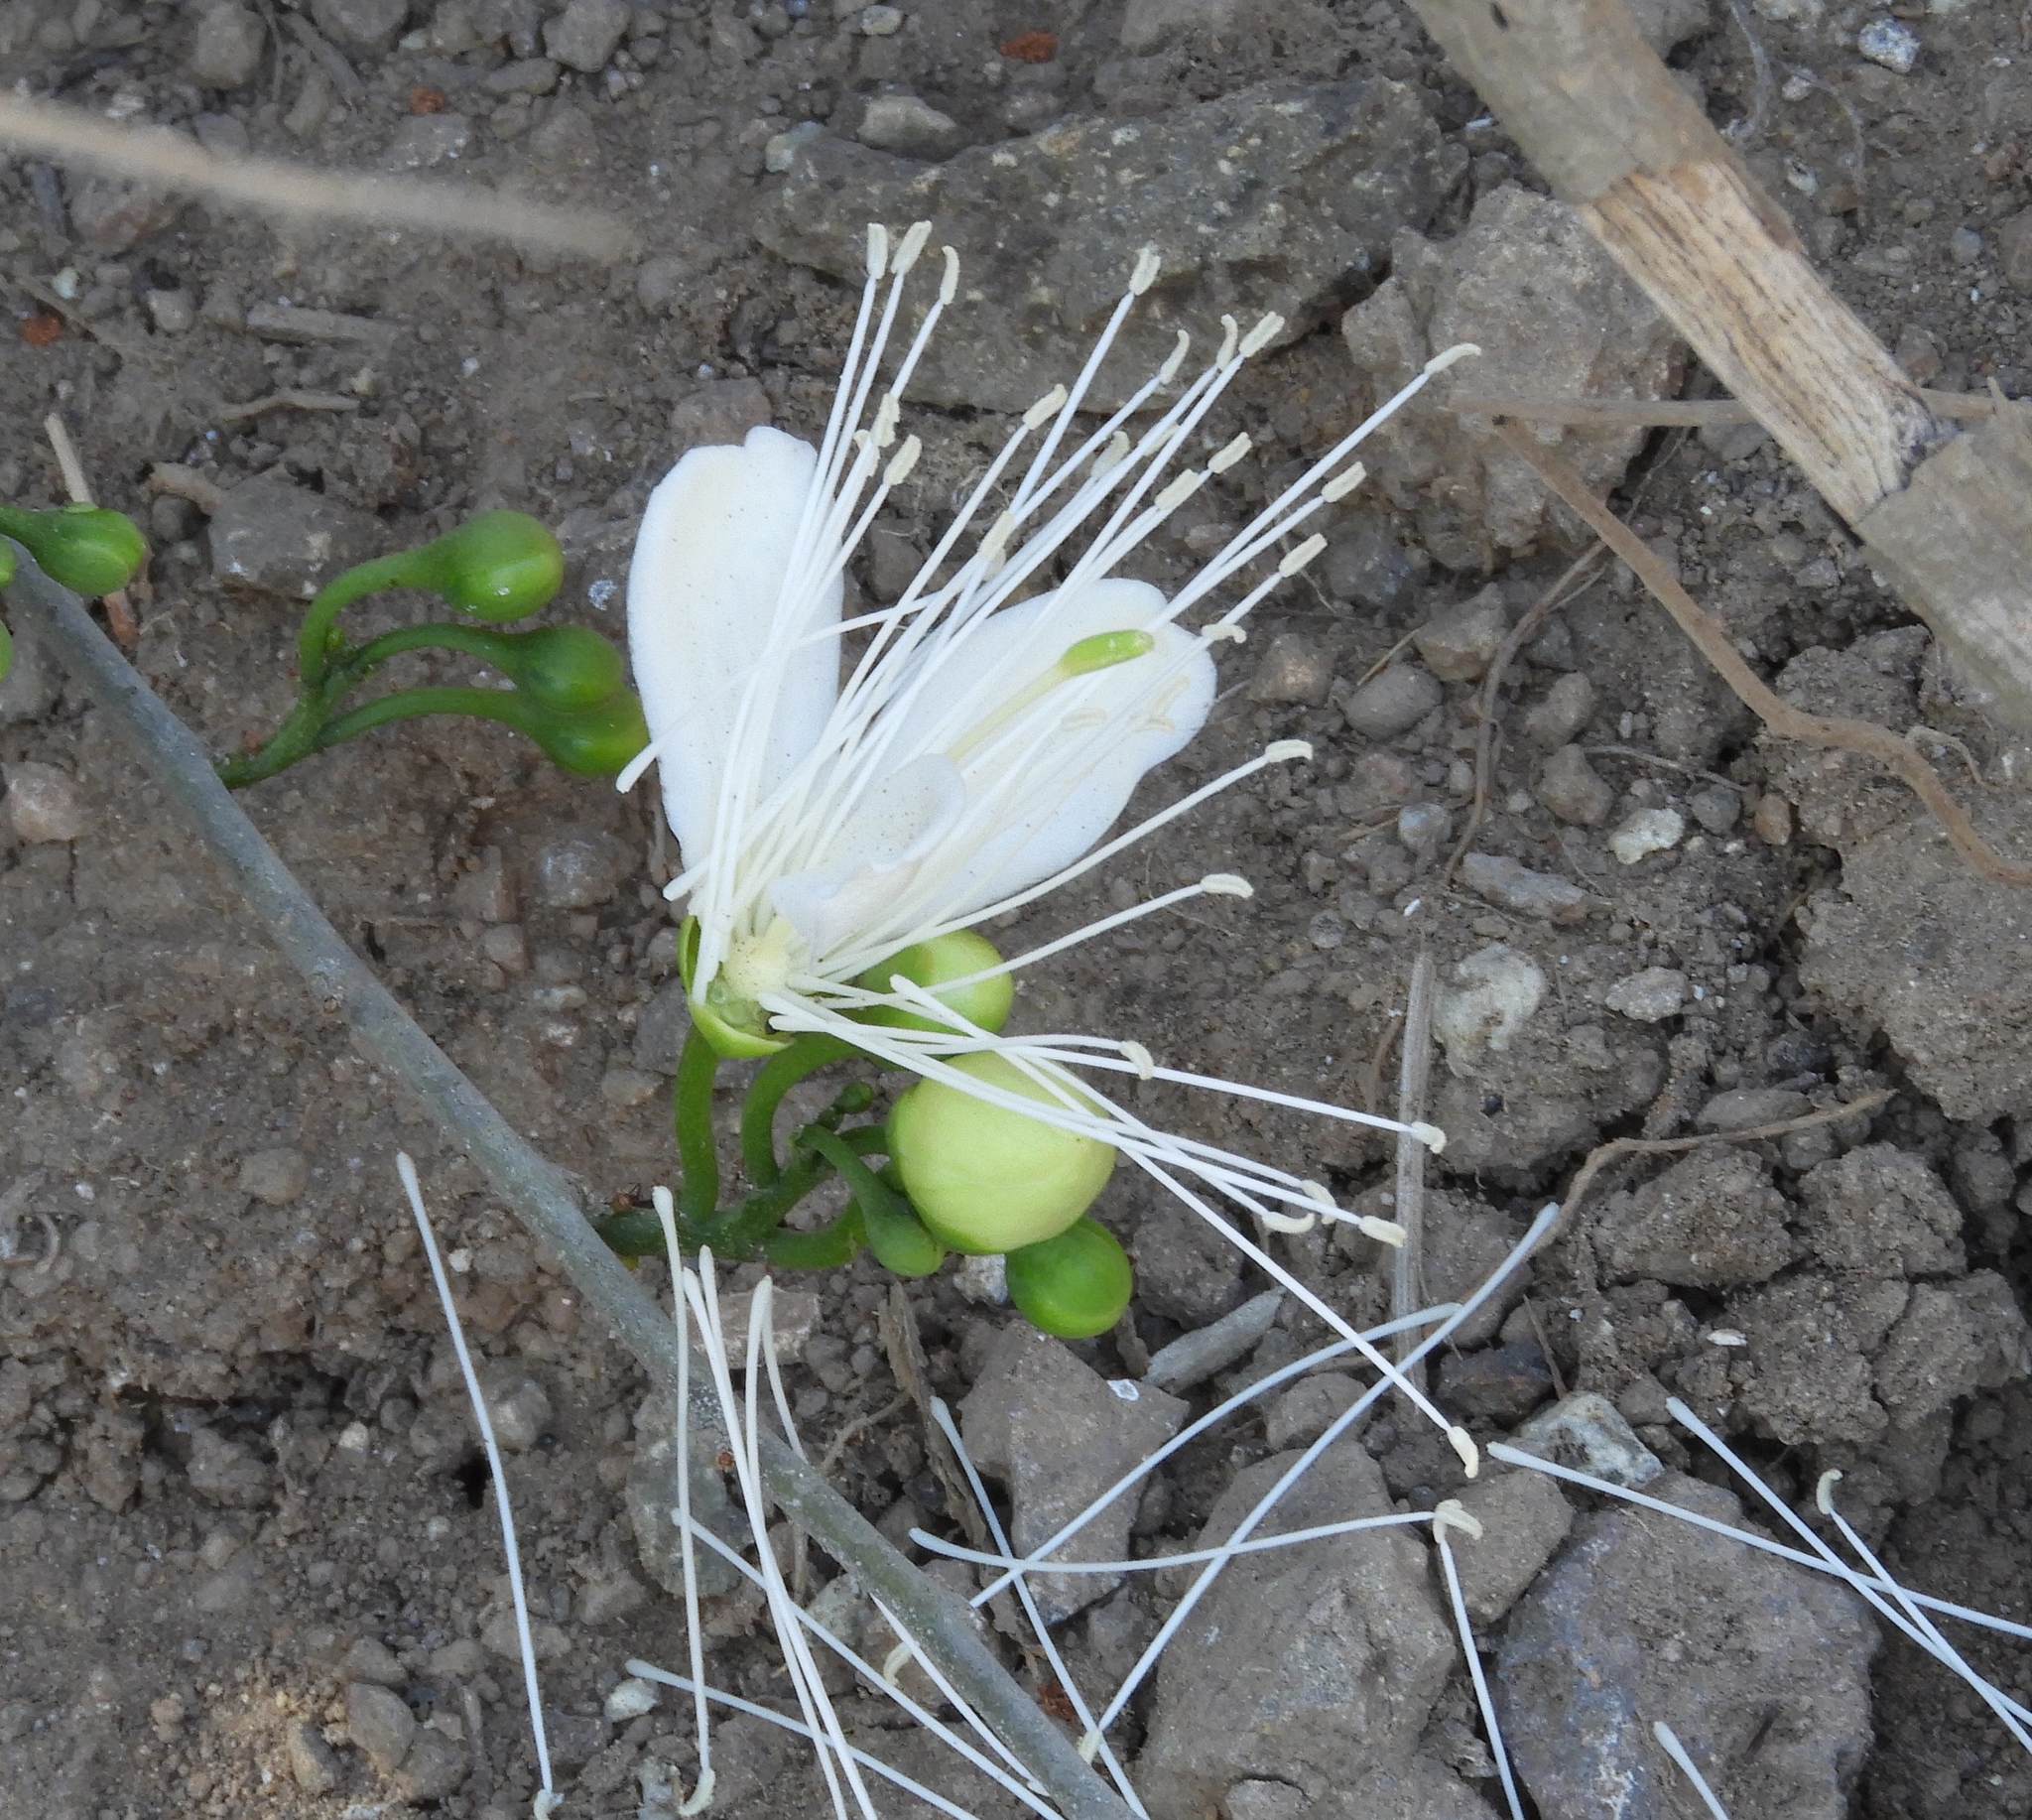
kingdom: Plantae
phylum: Tracheophyta
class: Magnoliopsida
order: Brassicales
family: Capparaceae
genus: Cynophalla
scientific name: Cynophalla flexuosa
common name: Capertree
